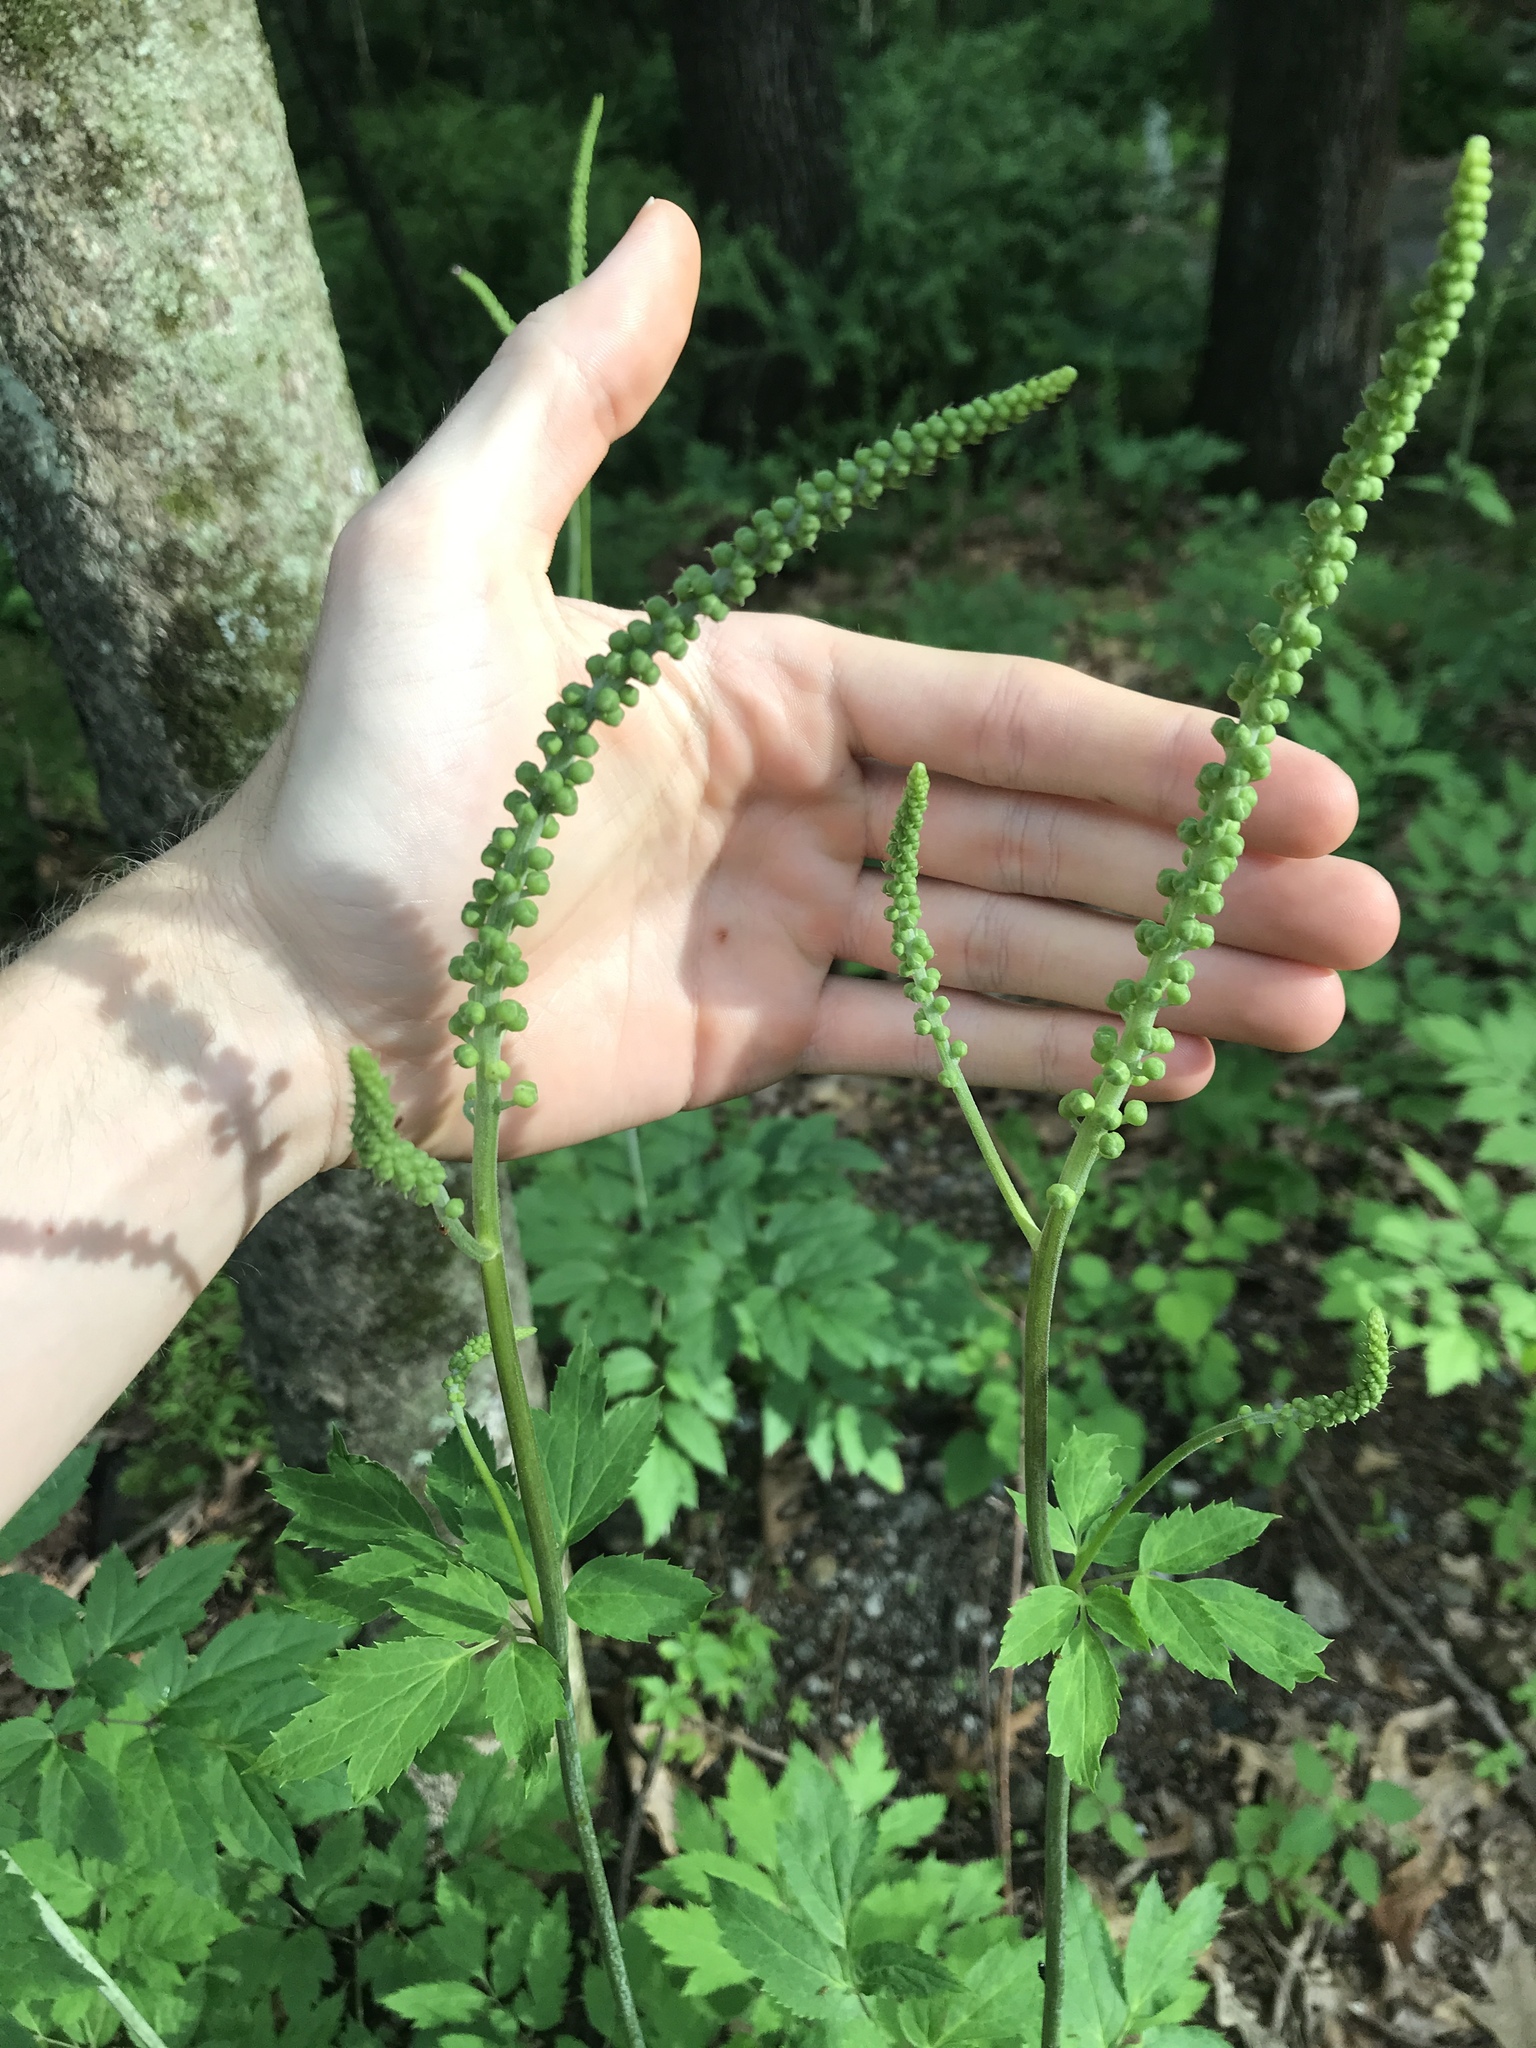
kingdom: Plantae
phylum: Tracheophyta
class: Magnoliopsida
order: Ranunculales
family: Ranunculaceae
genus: Actaea
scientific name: Actaea racemosa
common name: Black cohosh
